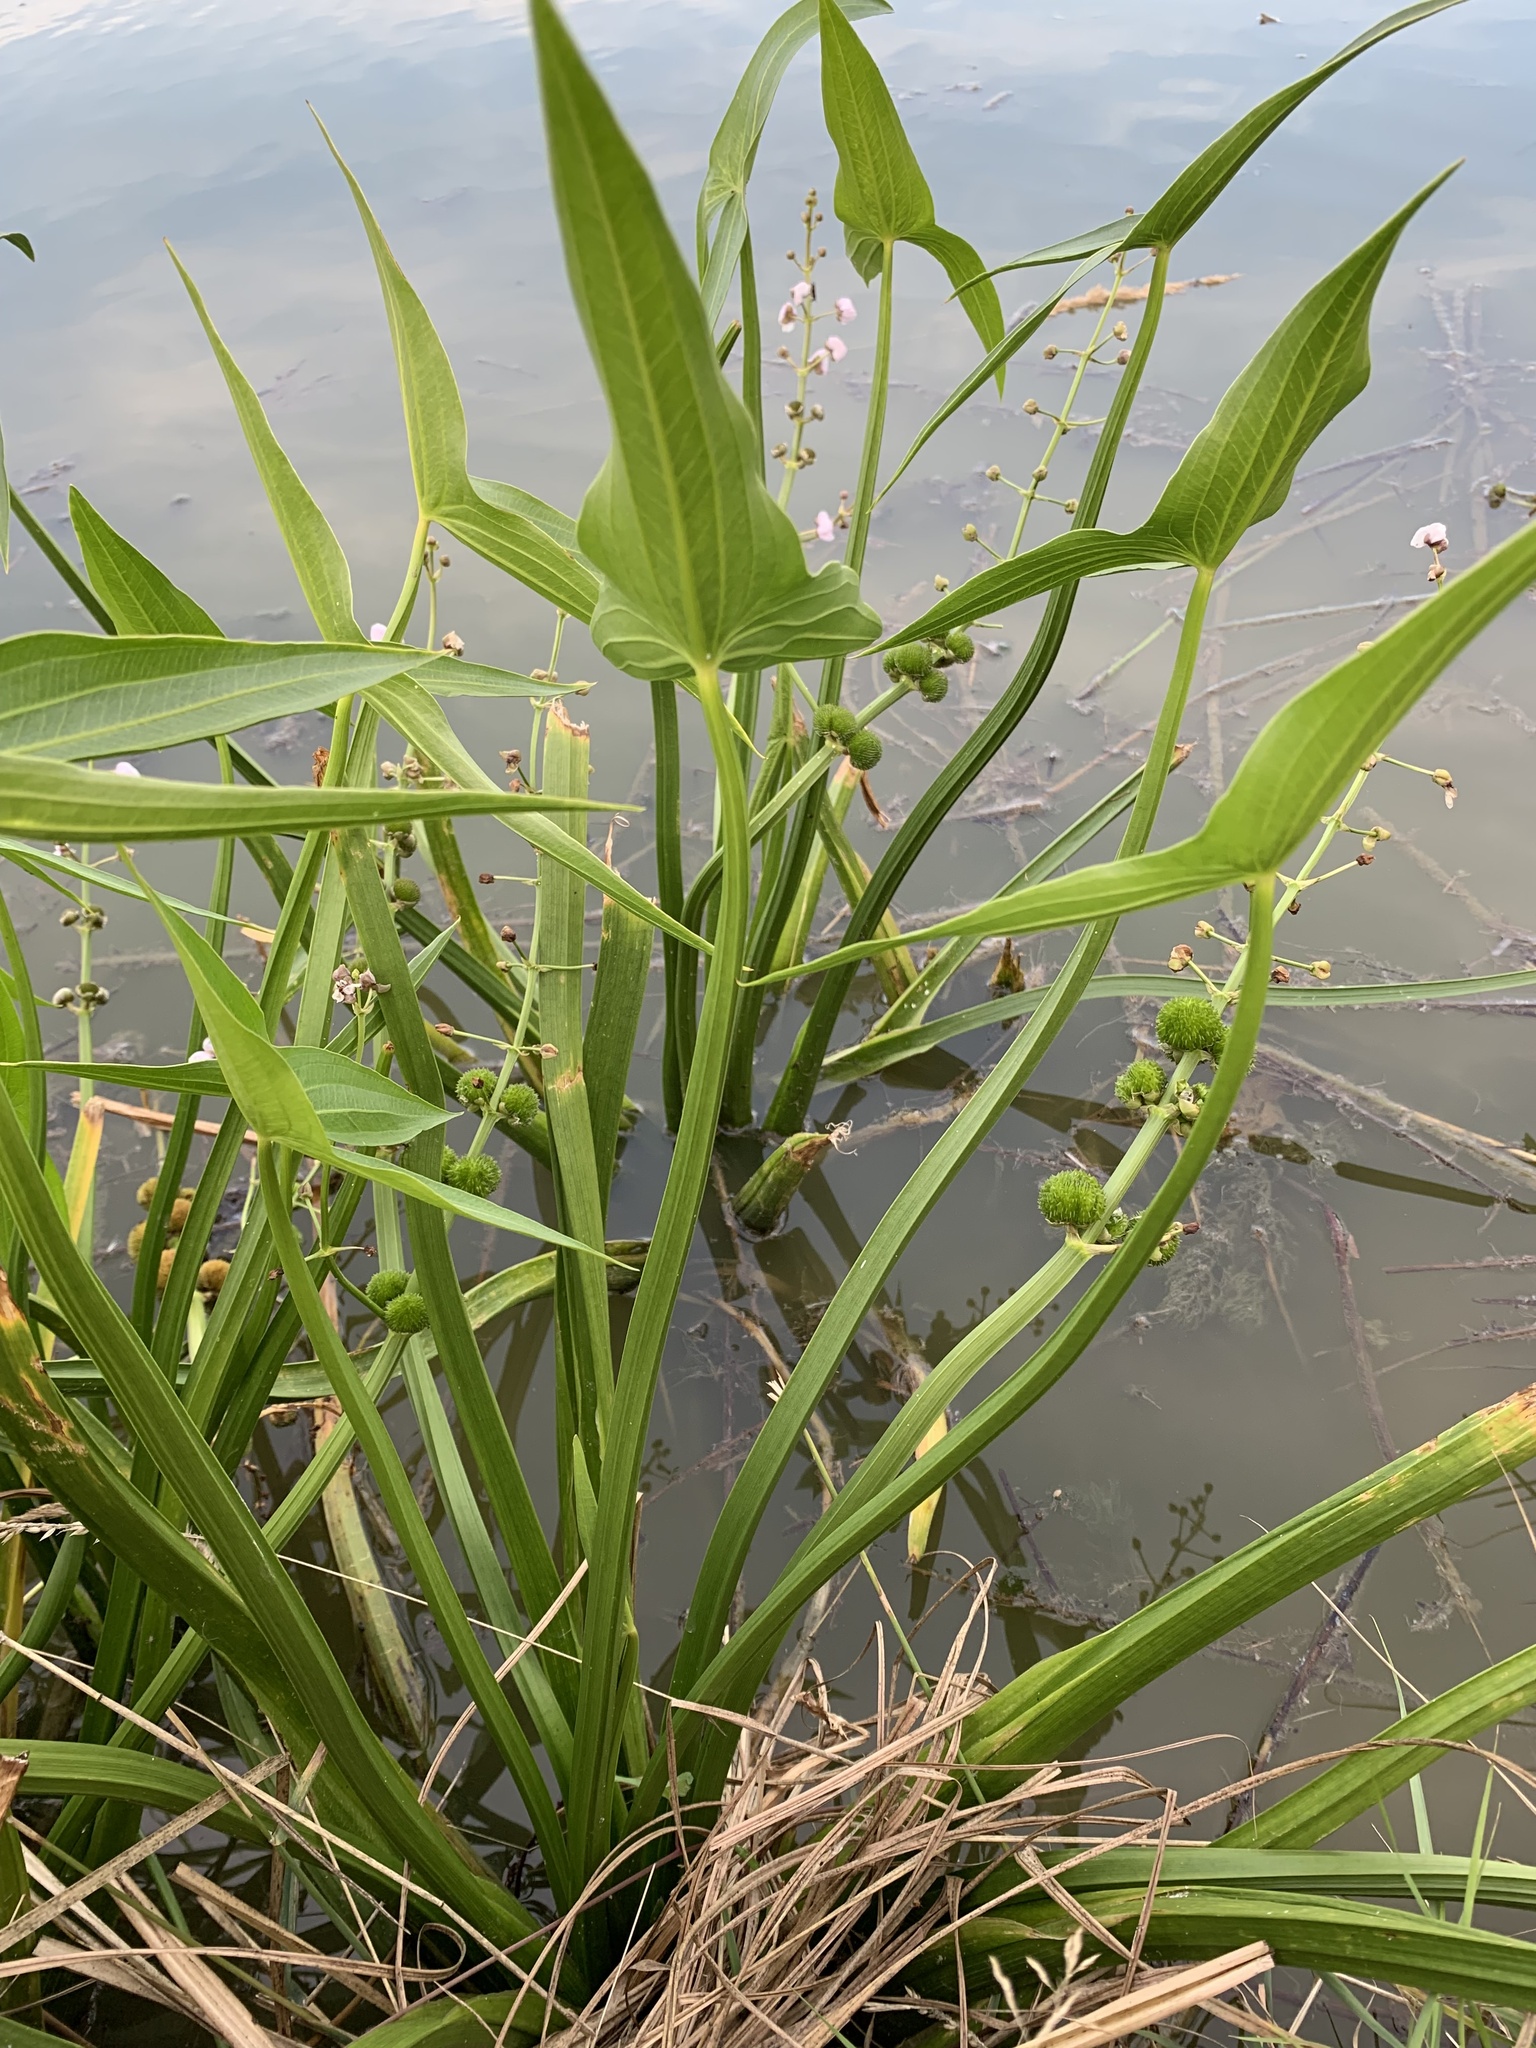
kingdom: Plantae
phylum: Tracheophyta
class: Liliopsida
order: Alismatales
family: Alismataceae
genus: Sagittaria
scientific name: Sagittaria sagittifolia
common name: Arrowhead
